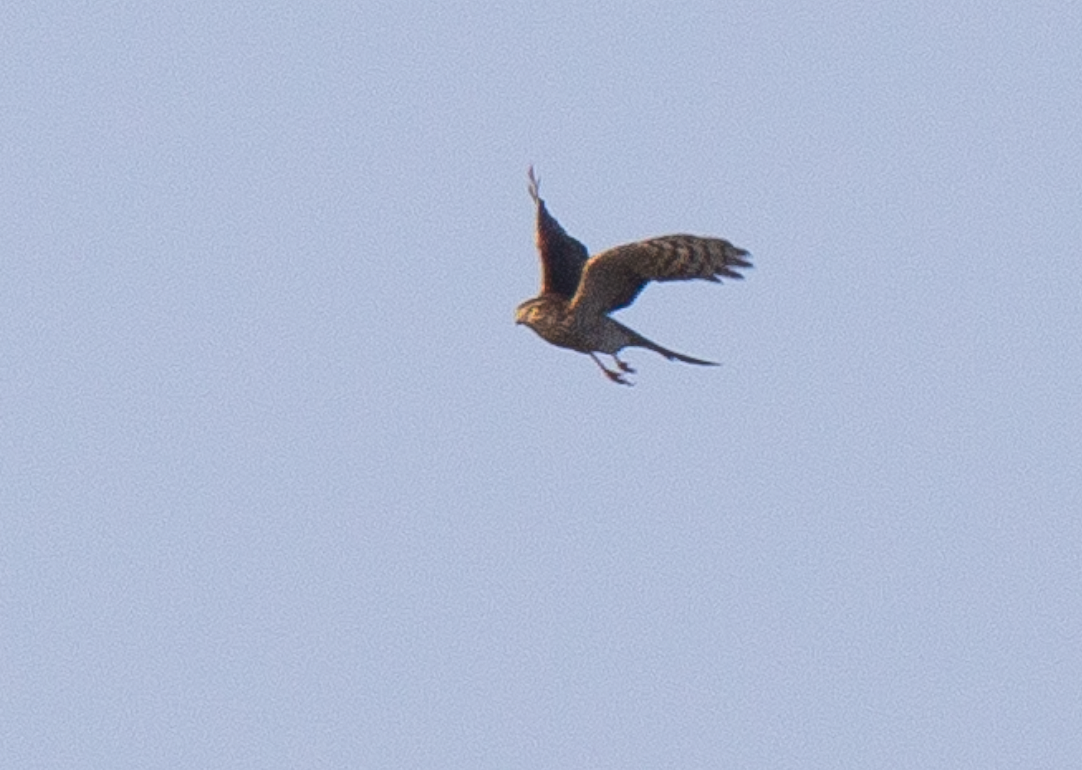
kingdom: Animalia
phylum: Chordata
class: Aves
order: Accipitriformes
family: Accipitridae
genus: Accipiter
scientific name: Accipiter nisus
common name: Eurasian sparrowhawk
